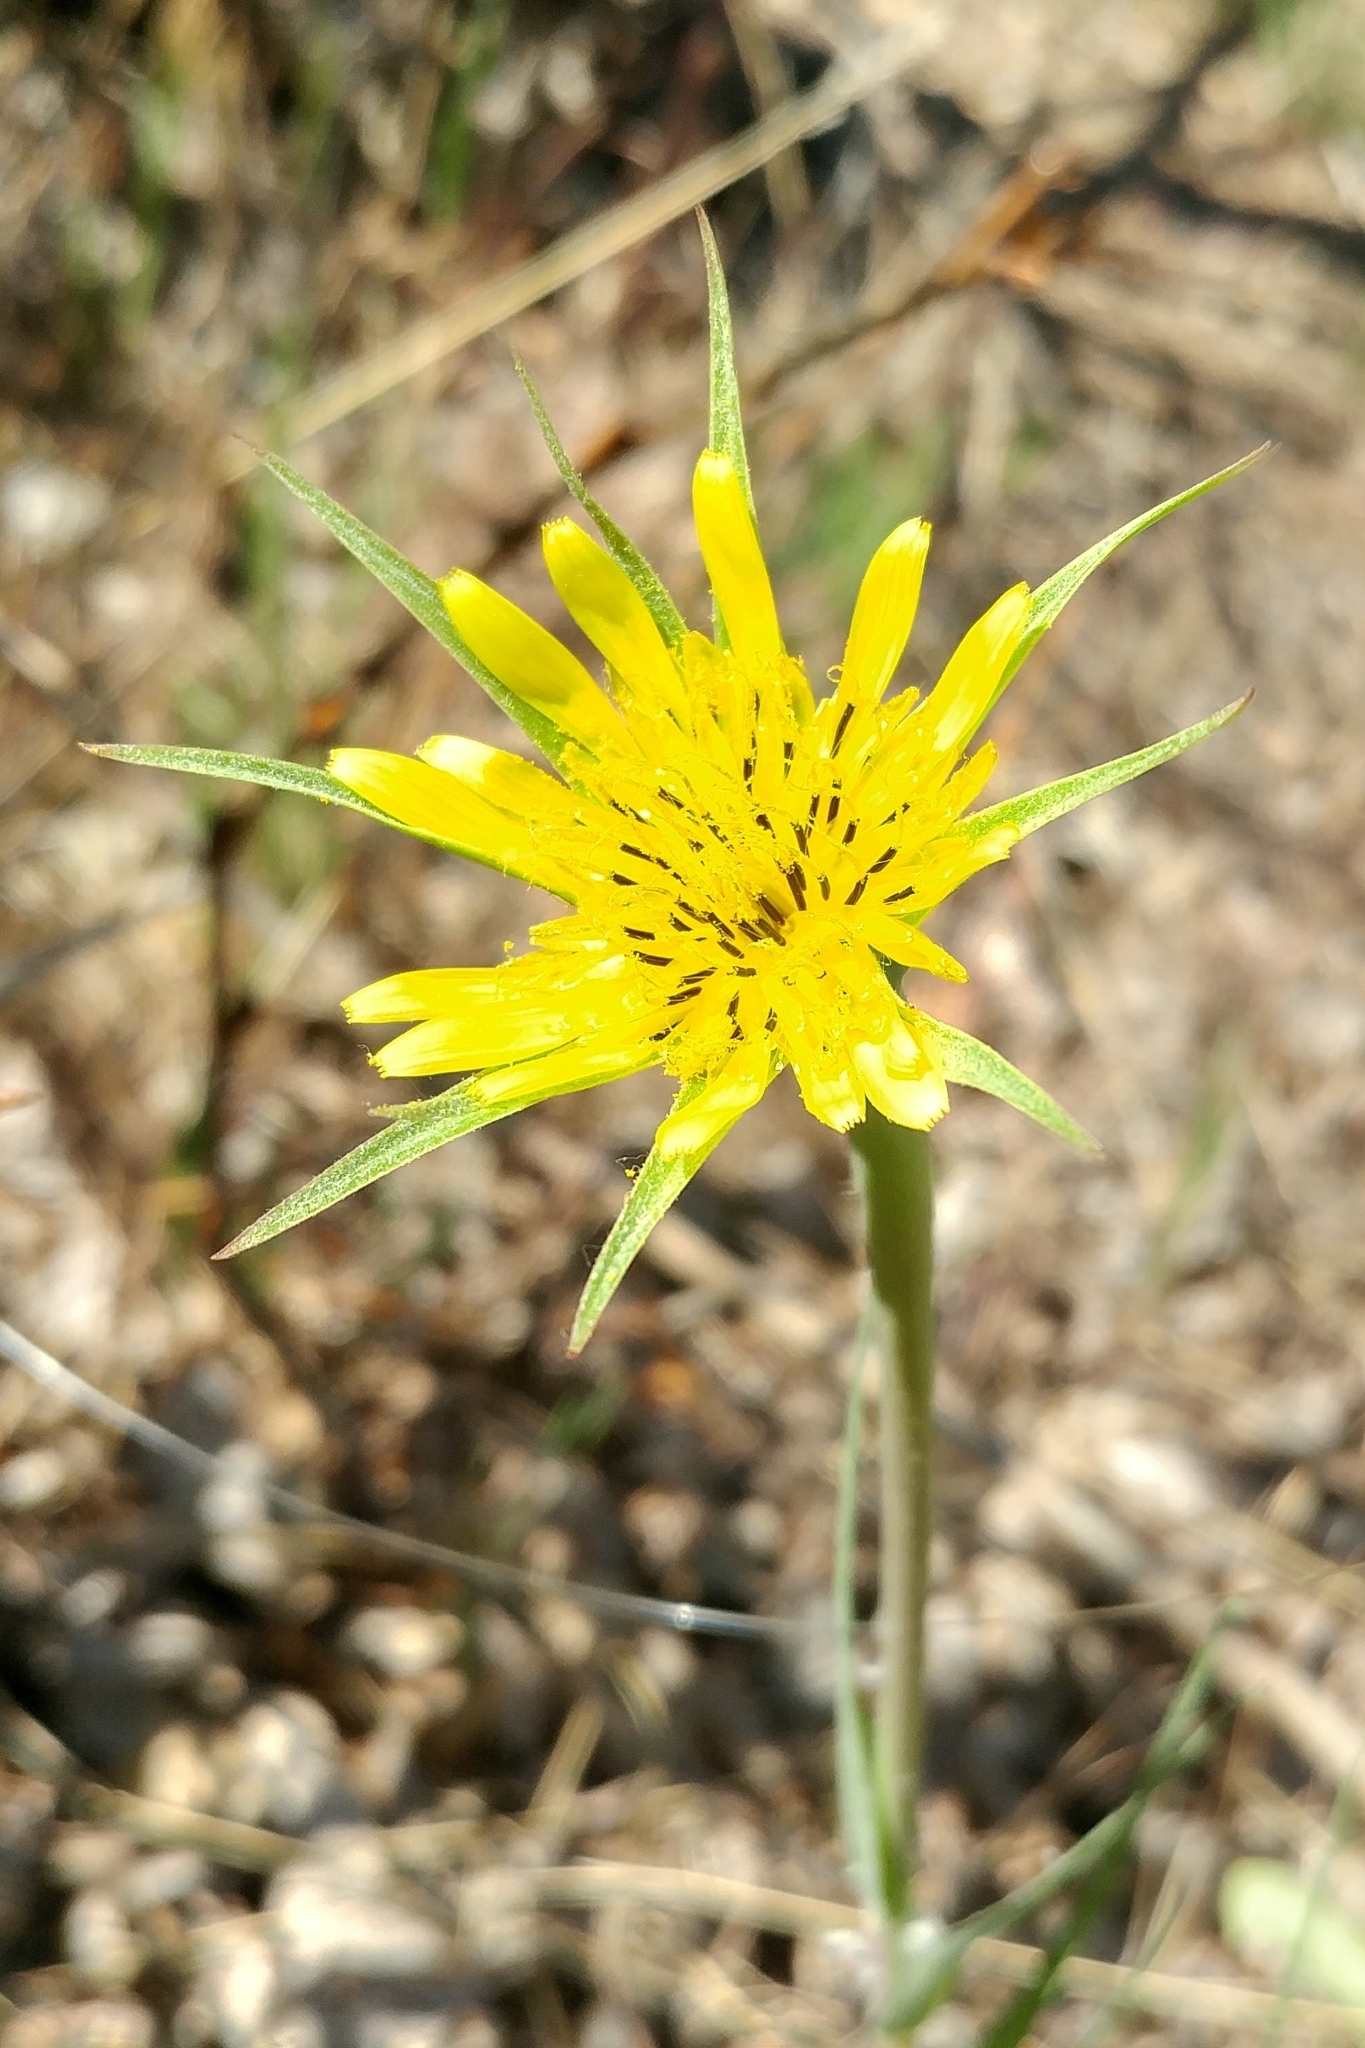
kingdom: Plantae
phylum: Tracheophyta
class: Magnoliopsida
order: Asterales
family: Asteraceae
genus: Tragopogon
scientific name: Tragopogon dubius
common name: Yellow salsify
